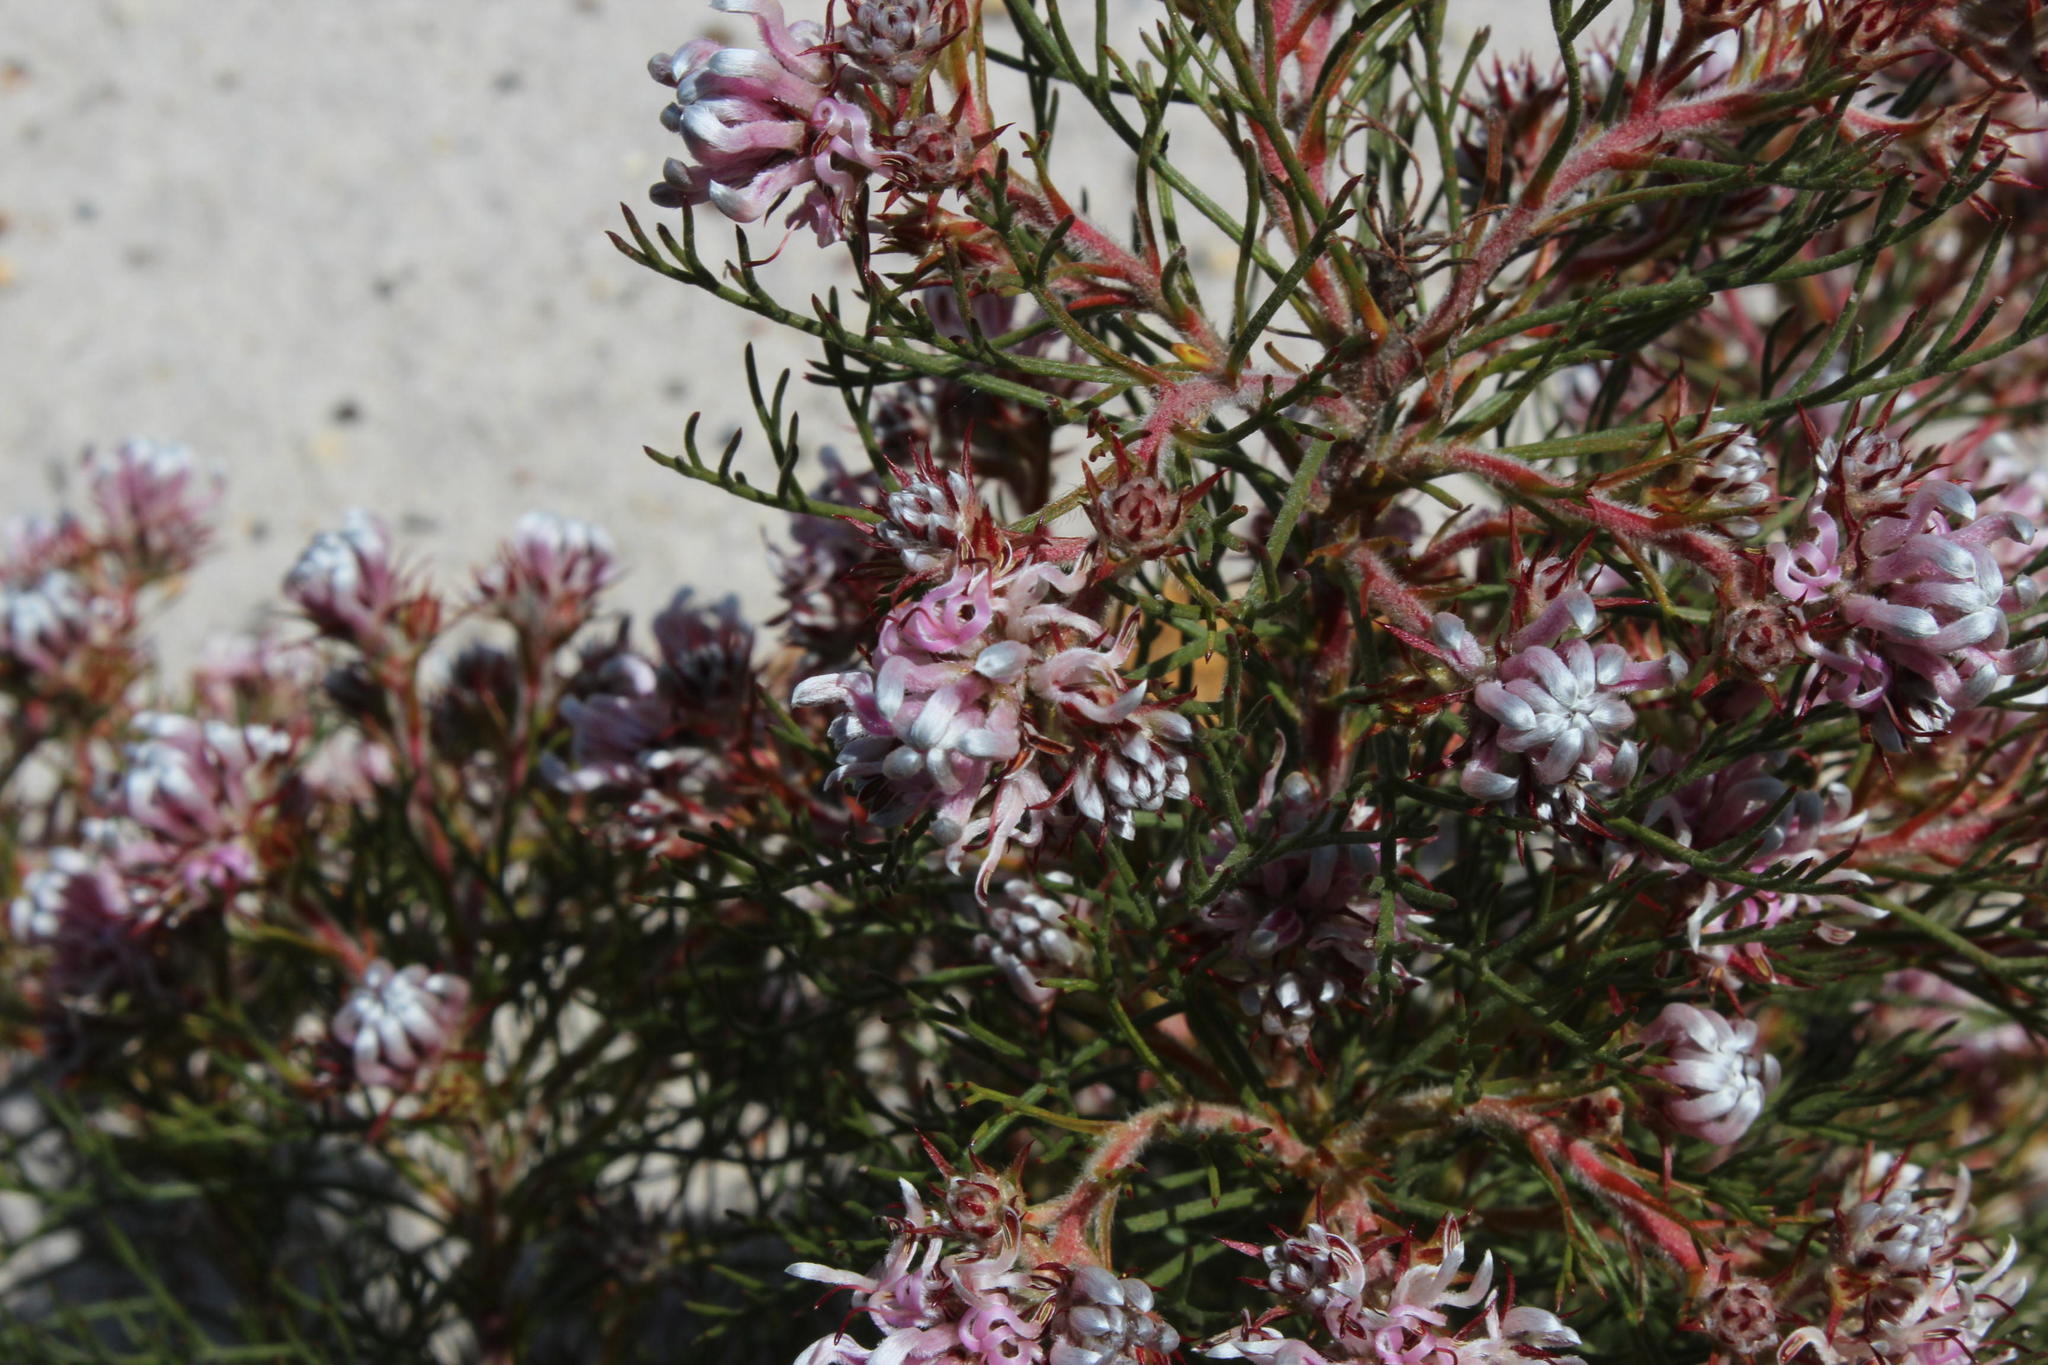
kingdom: Plantae
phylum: Tracheophyta
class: Magnoliopsida
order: Proteales
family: Proteaceae
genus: Serruria
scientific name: Serruria decipiens
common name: Sandveld spiderhead
